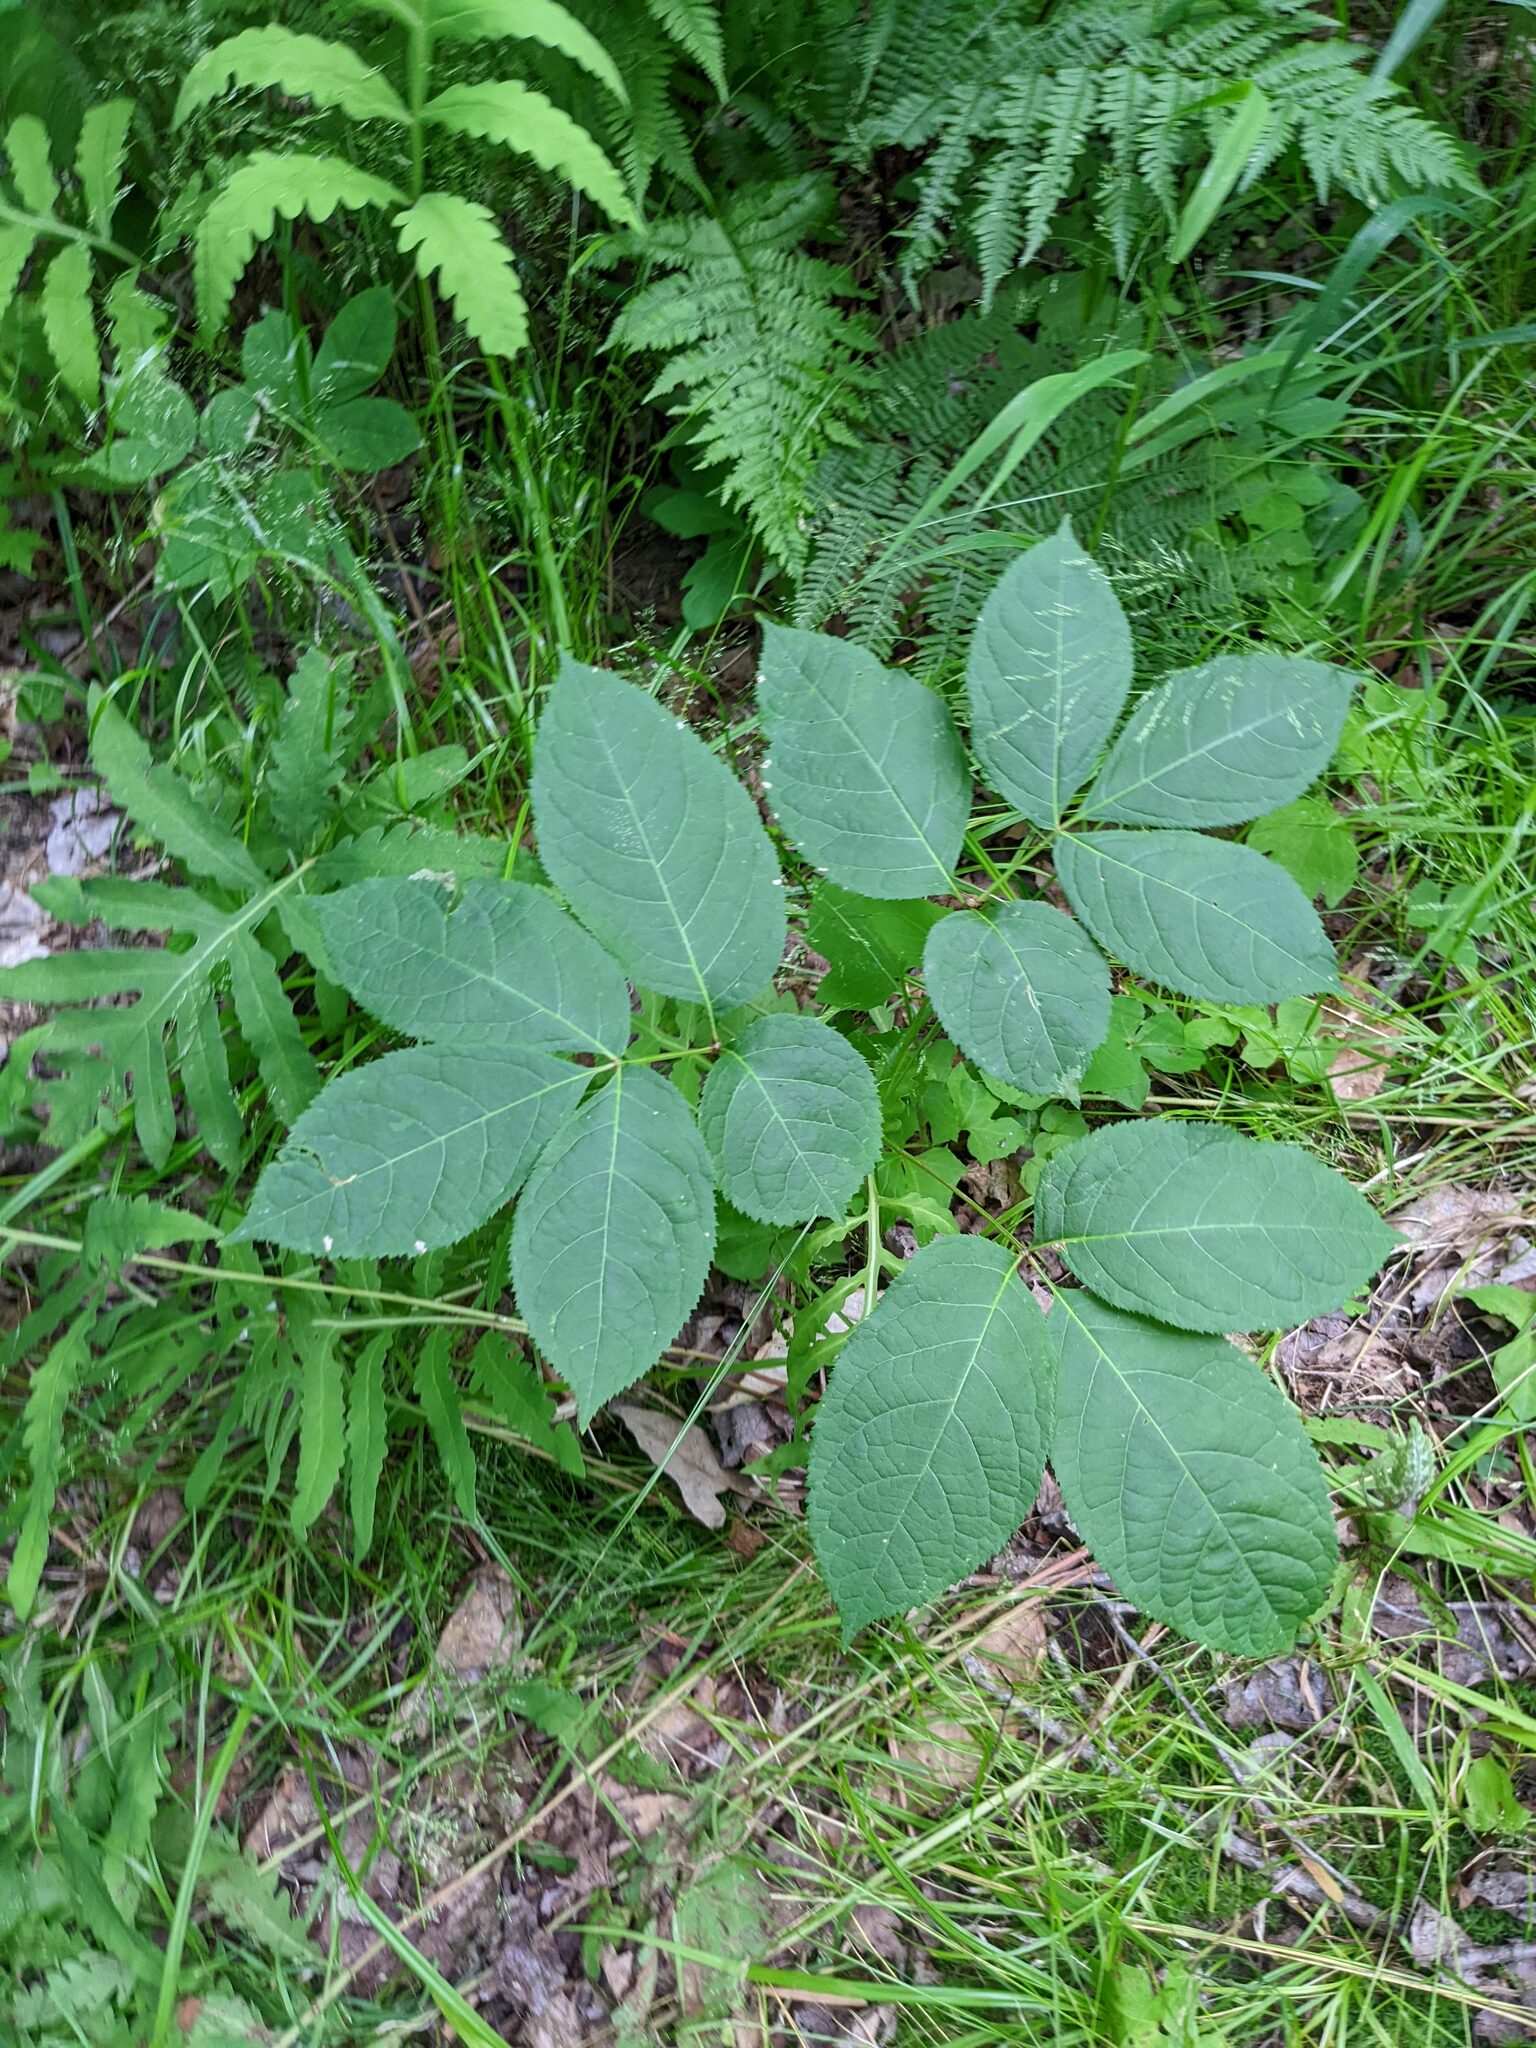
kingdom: Plantae
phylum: Tracheophyta
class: Magnoliopsida
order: Apiales
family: Araliaceae
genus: Aralia
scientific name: Aralia nudicaulis
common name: Wild sarsaparilla
